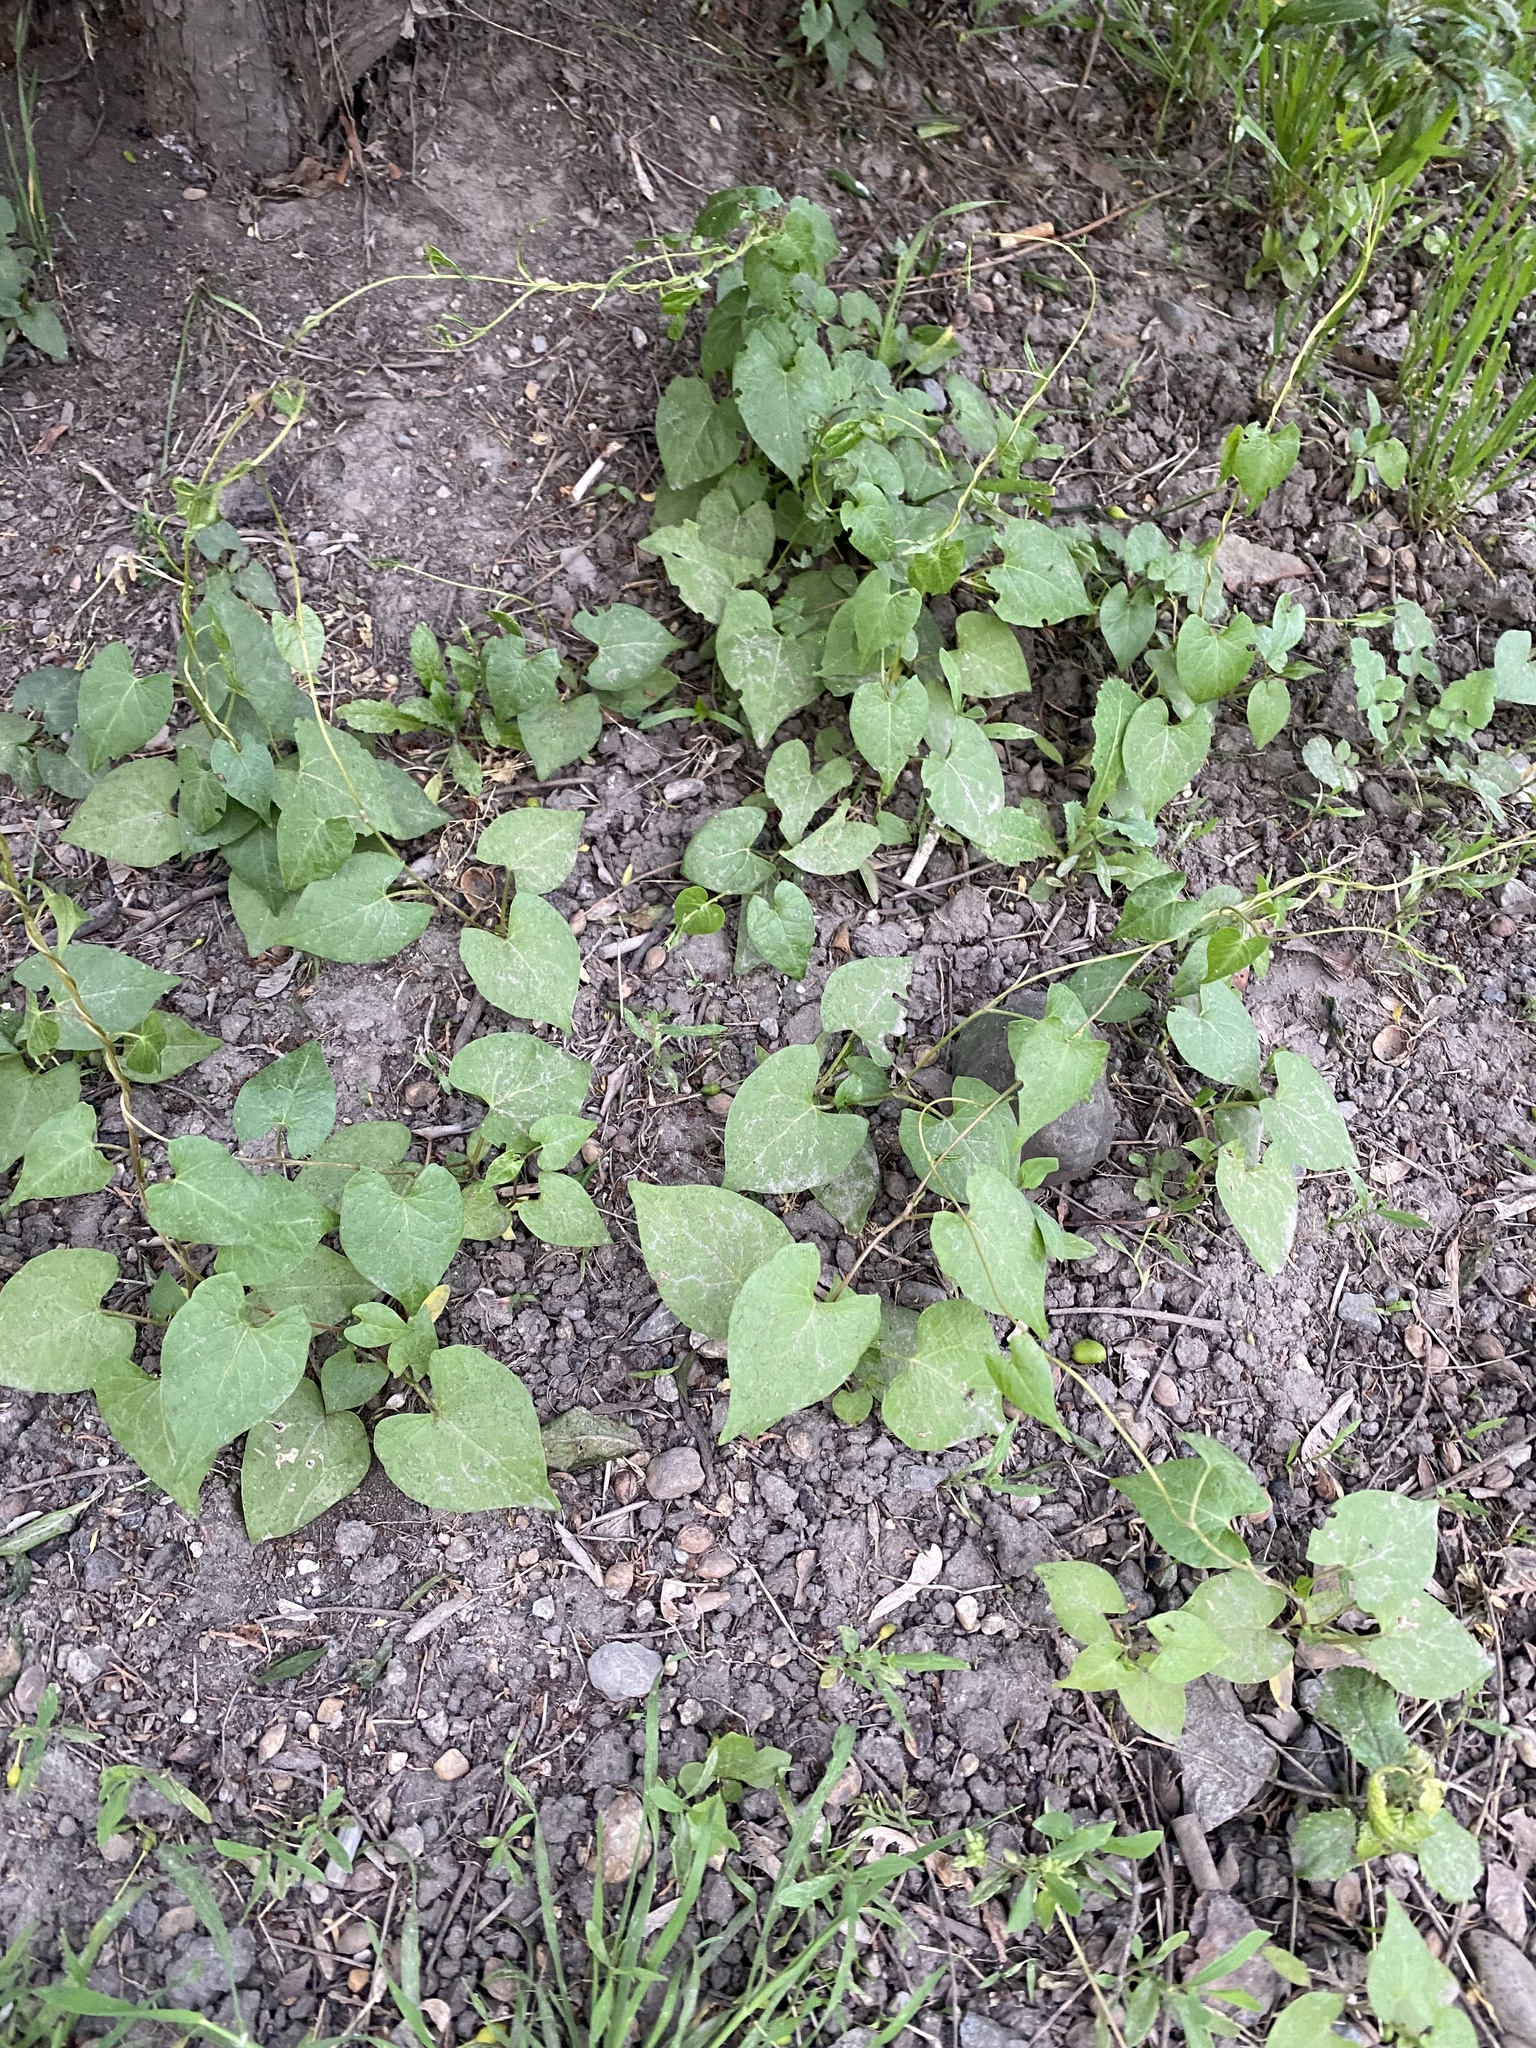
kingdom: Plantae
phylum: Tracheophyta
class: Magnoliopsida
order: Caryophyllales
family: Polygonaceae
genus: Fallopia
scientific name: Fallopia convolvulus
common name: Black bindweed
